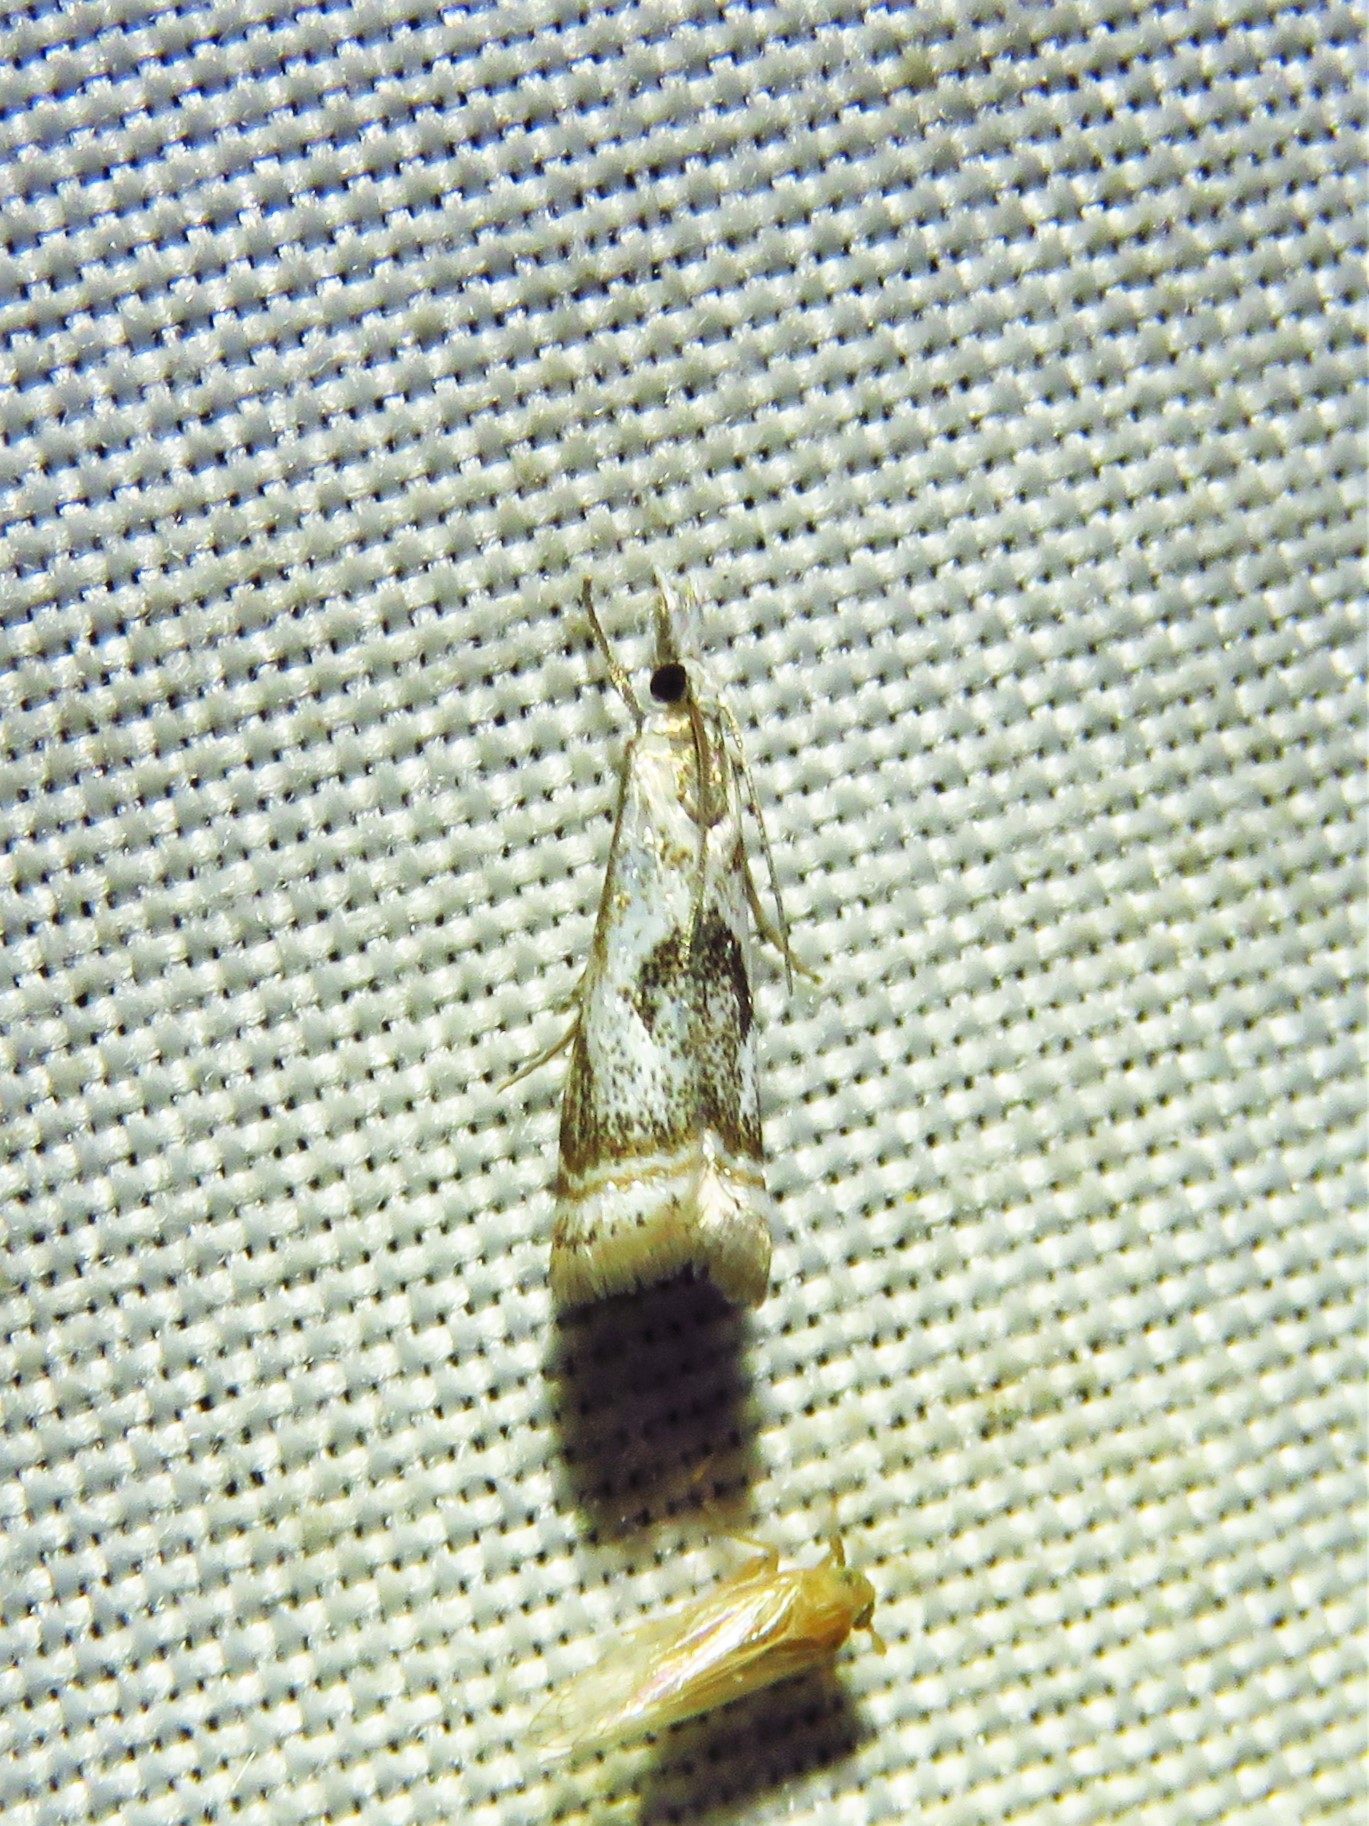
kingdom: Animalia
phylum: Arthropoda
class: Insecta
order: Lepidoptera
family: Crambidae
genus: Microcrambus
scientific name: Microcrambus elegans
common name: Elegant grass-veneer
